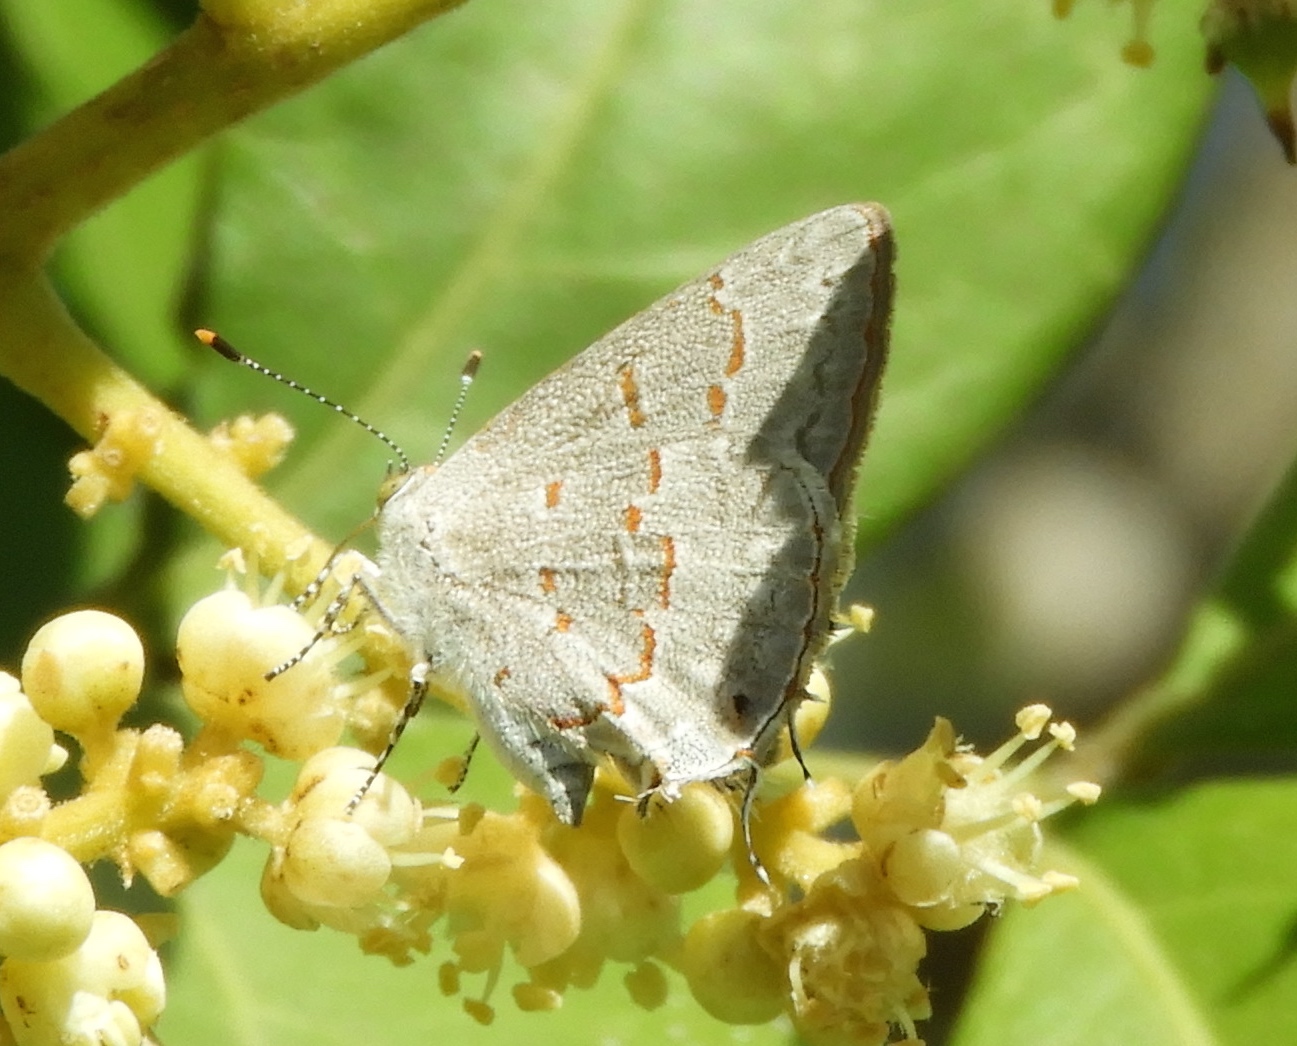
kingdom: Animalia
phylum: Arthropoda
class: Insecta
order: Lepidoptera
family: Lycaenidae
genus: Ministrymon
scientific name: Ministrymon clytie
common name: Clytie ministreak
